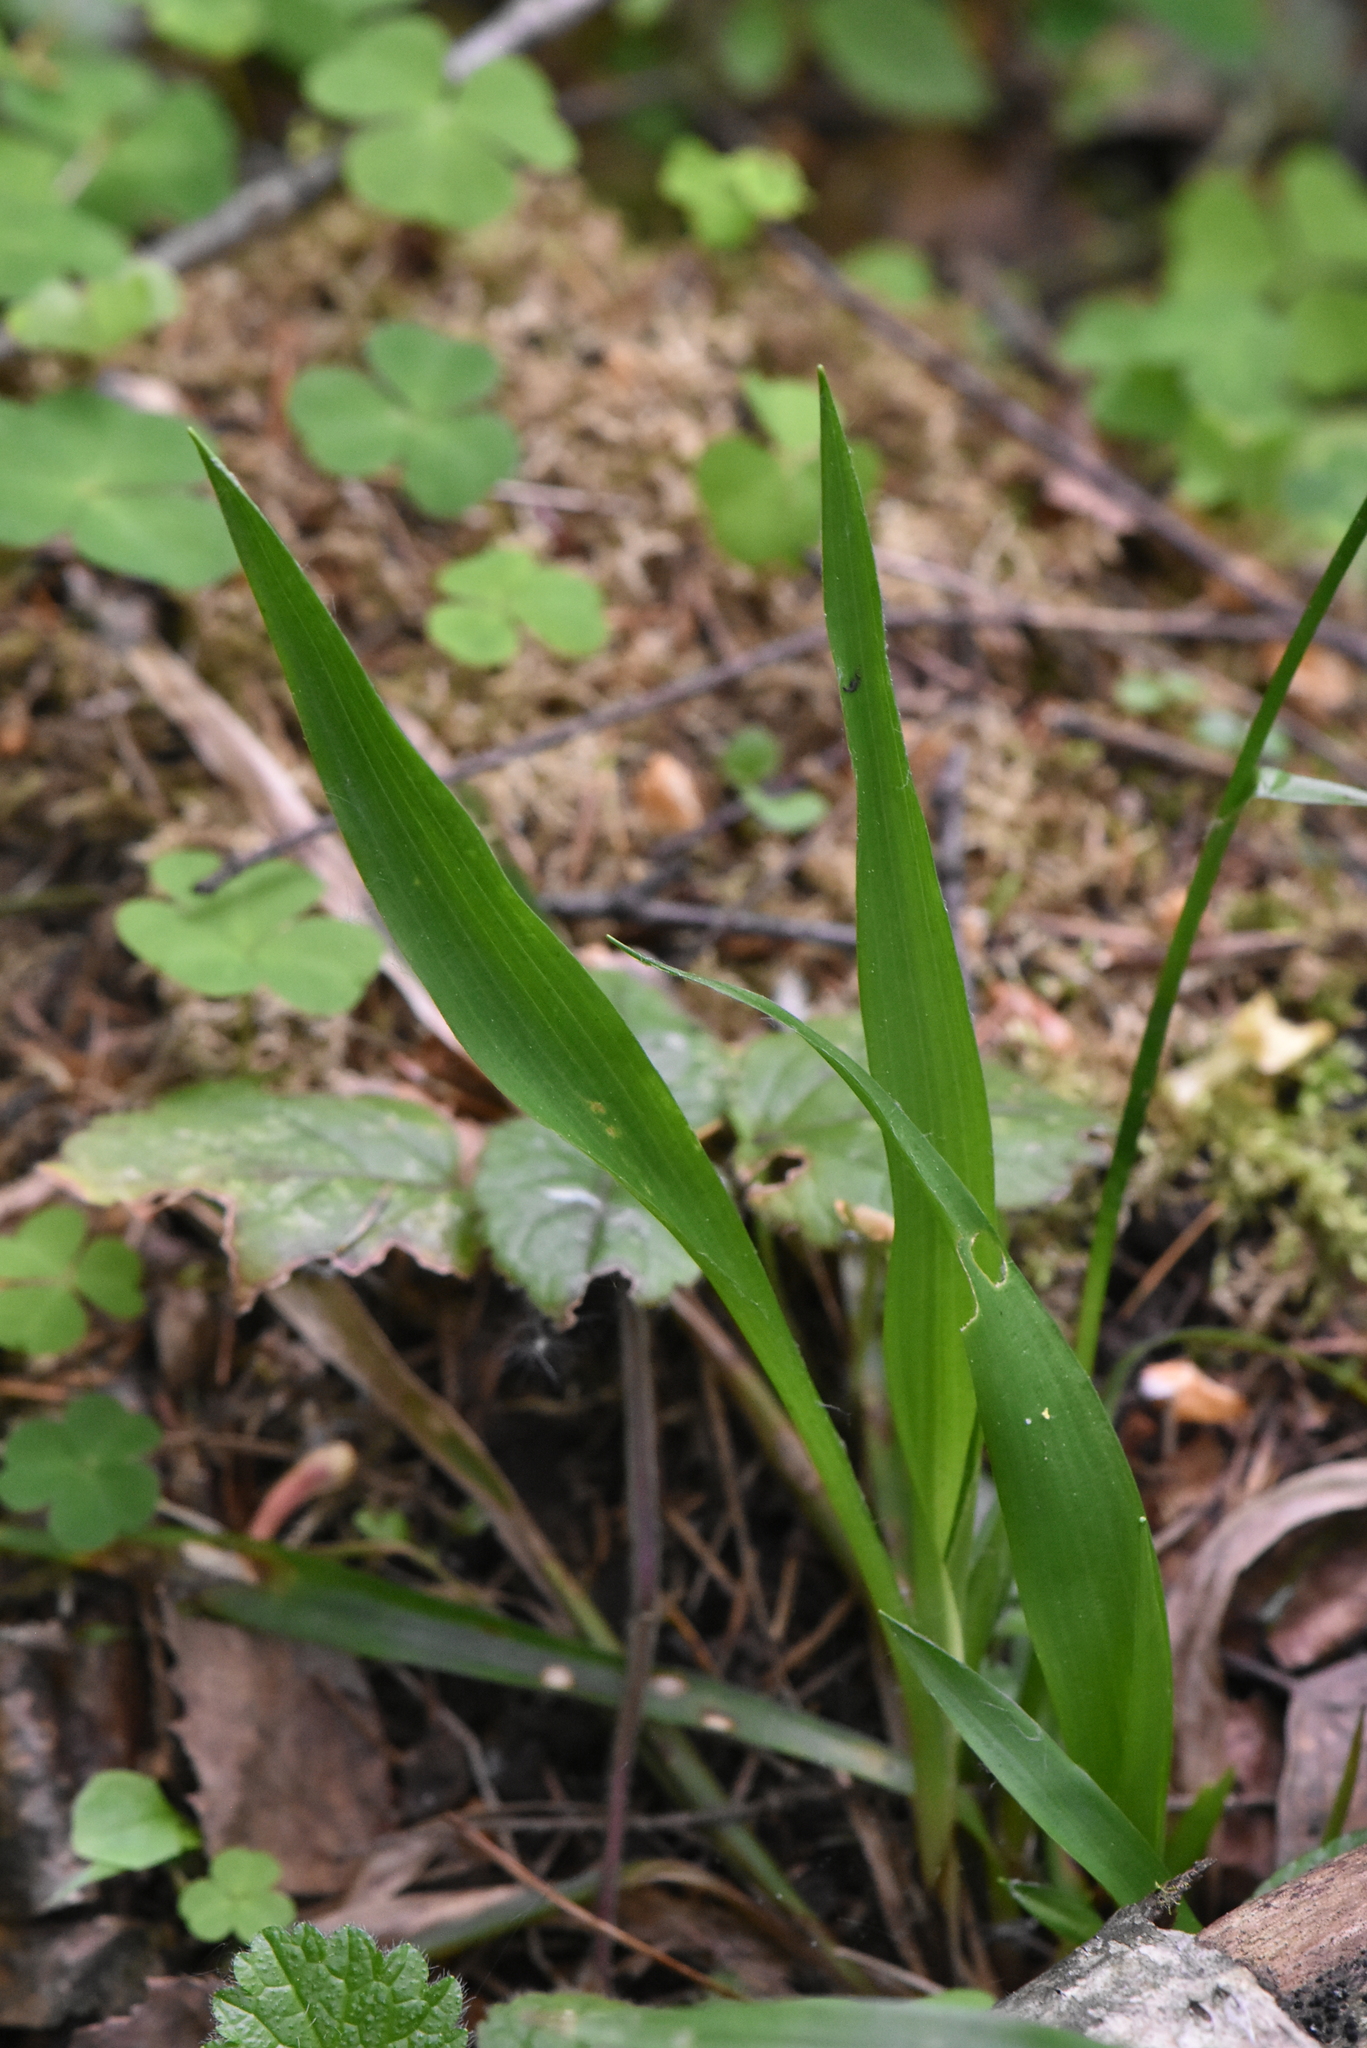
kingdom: Plantae
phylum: Tracheophyta
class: Liliopsida
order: Poales
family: Juncaceae
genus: Luzula
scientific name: Luzula pilosa
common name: Hairy wood-rush
